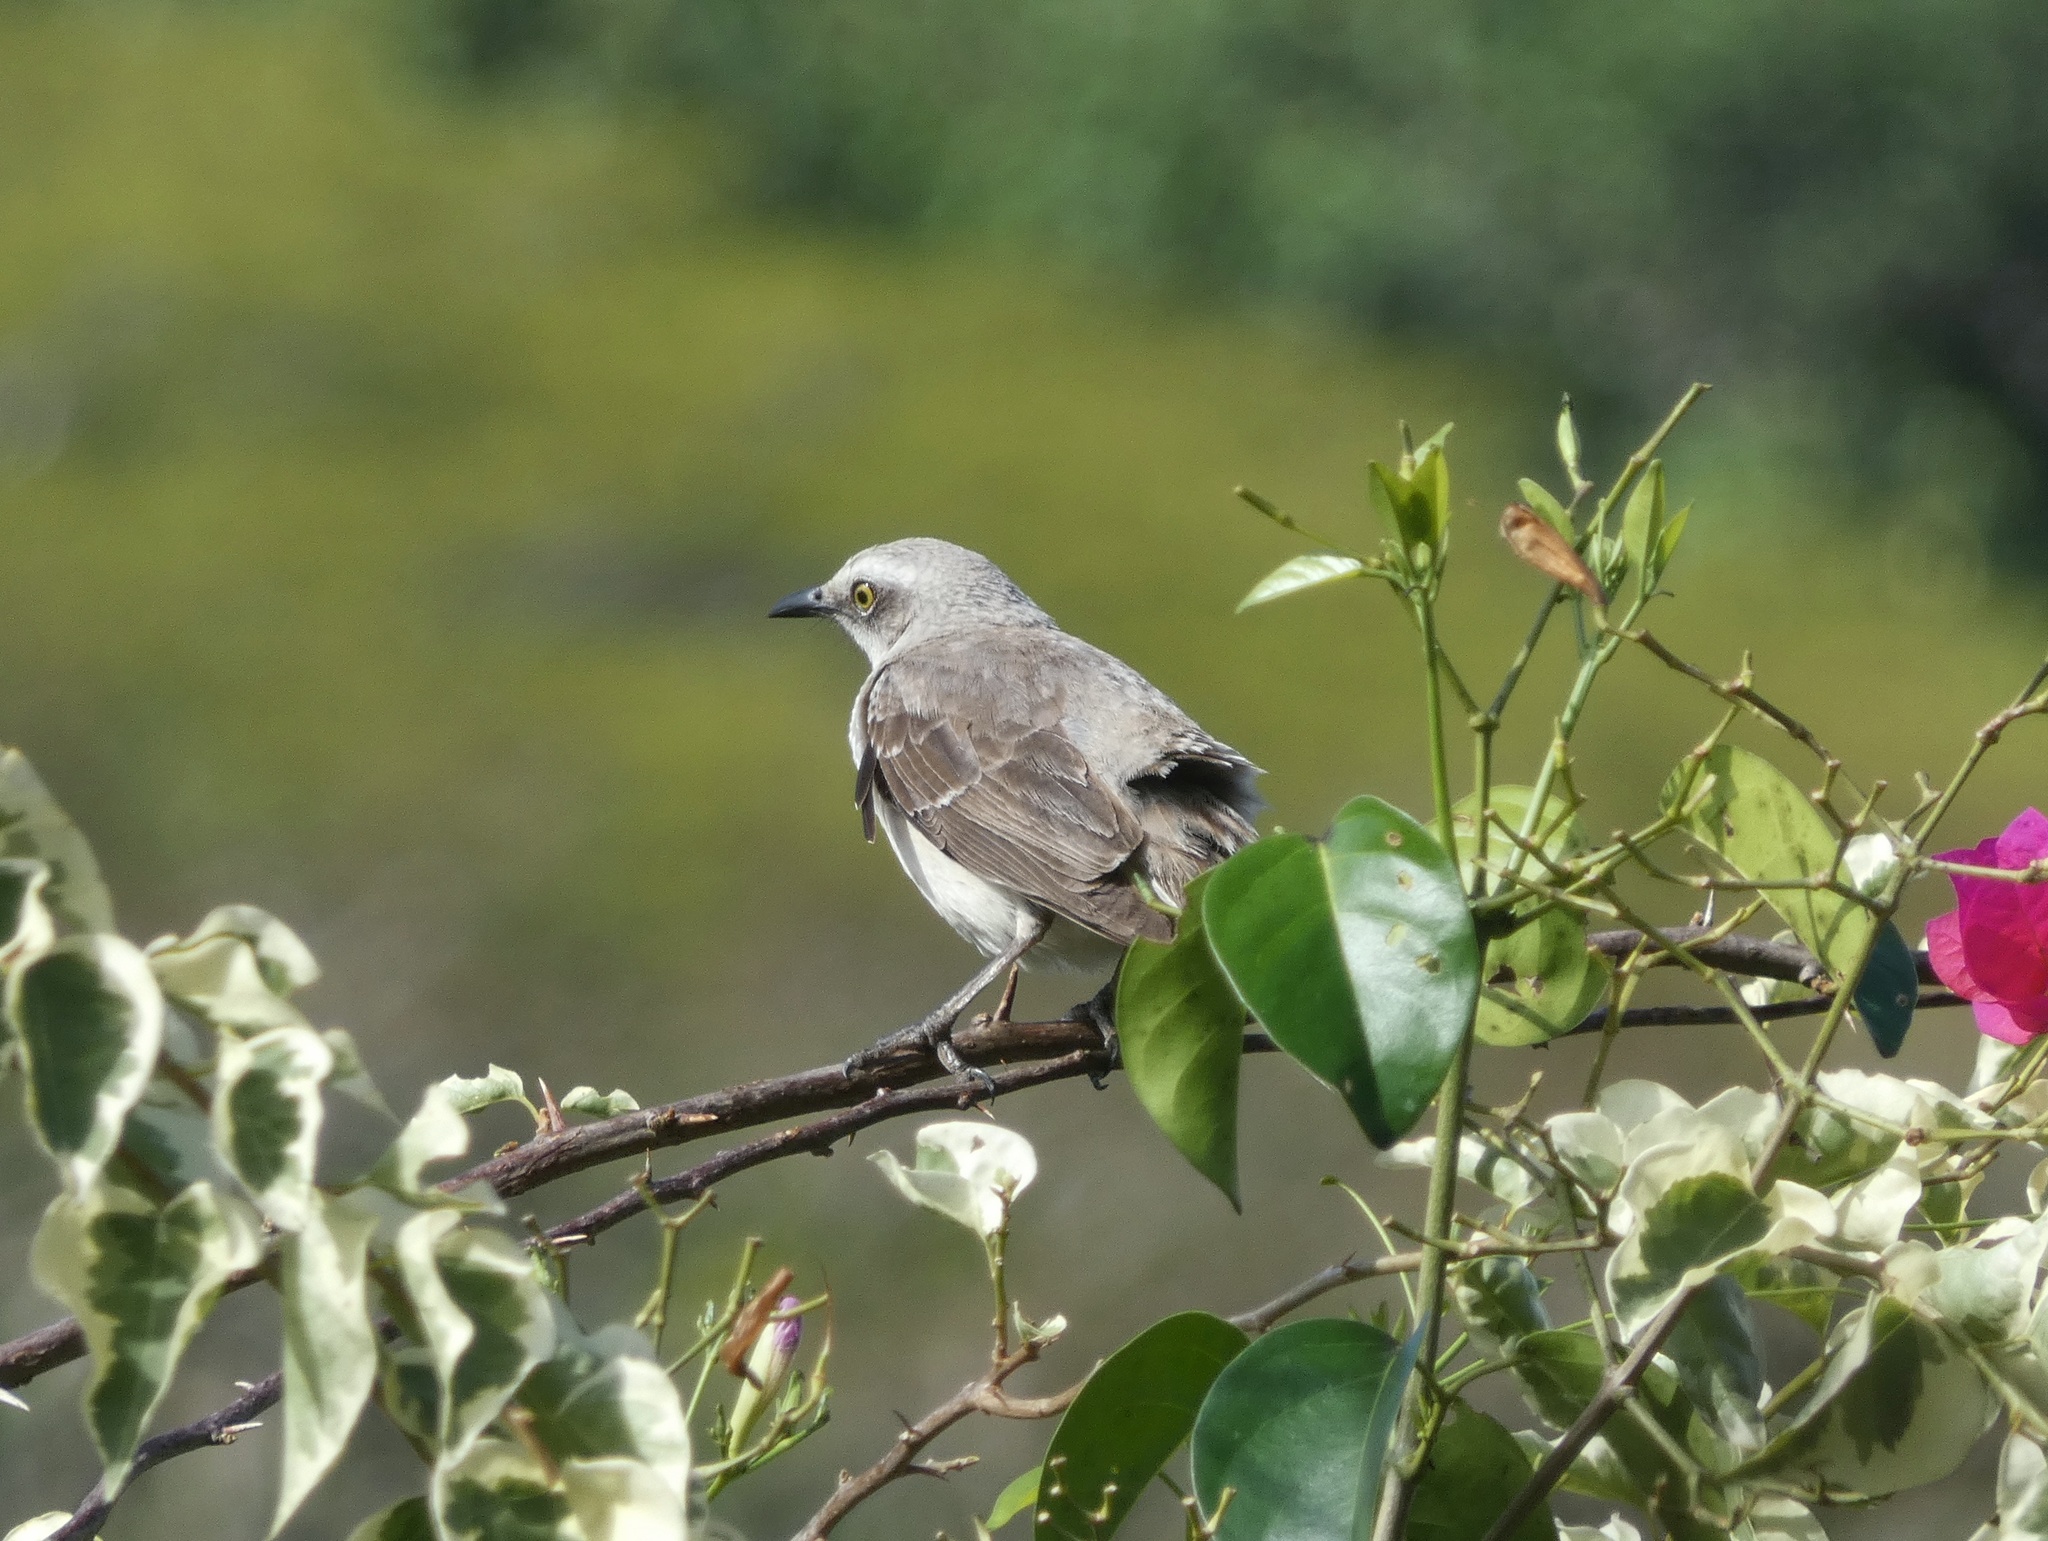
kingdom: Animalia
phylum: Chordata
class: Aves
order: Passeriformes
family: Mimidae
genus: Mimus
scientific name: Mimus gilvus
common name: Tropical mockingbird
